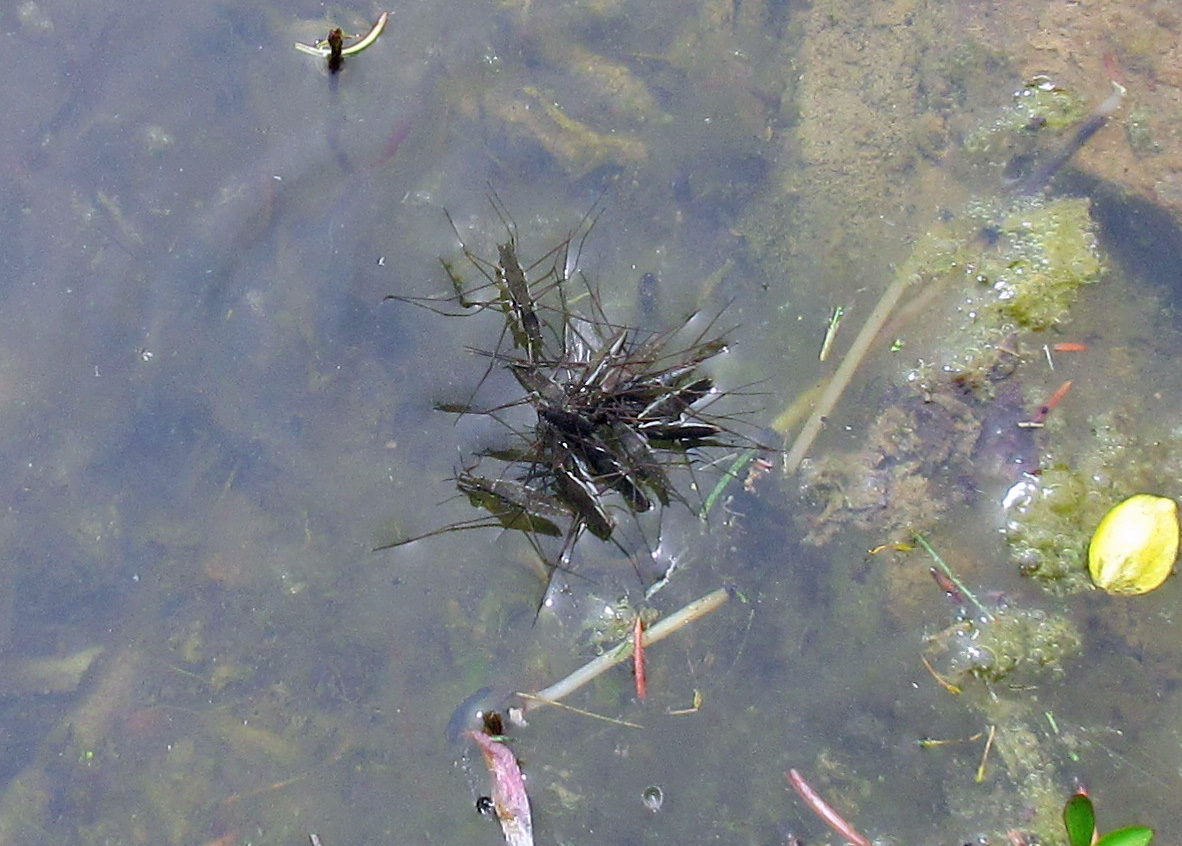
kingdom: Animalia
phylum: Arthropoda
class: Insecta
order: Hemiptera
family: Gerridae
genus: Aquarius
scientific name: Aquarius remigis
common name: Common water strider
